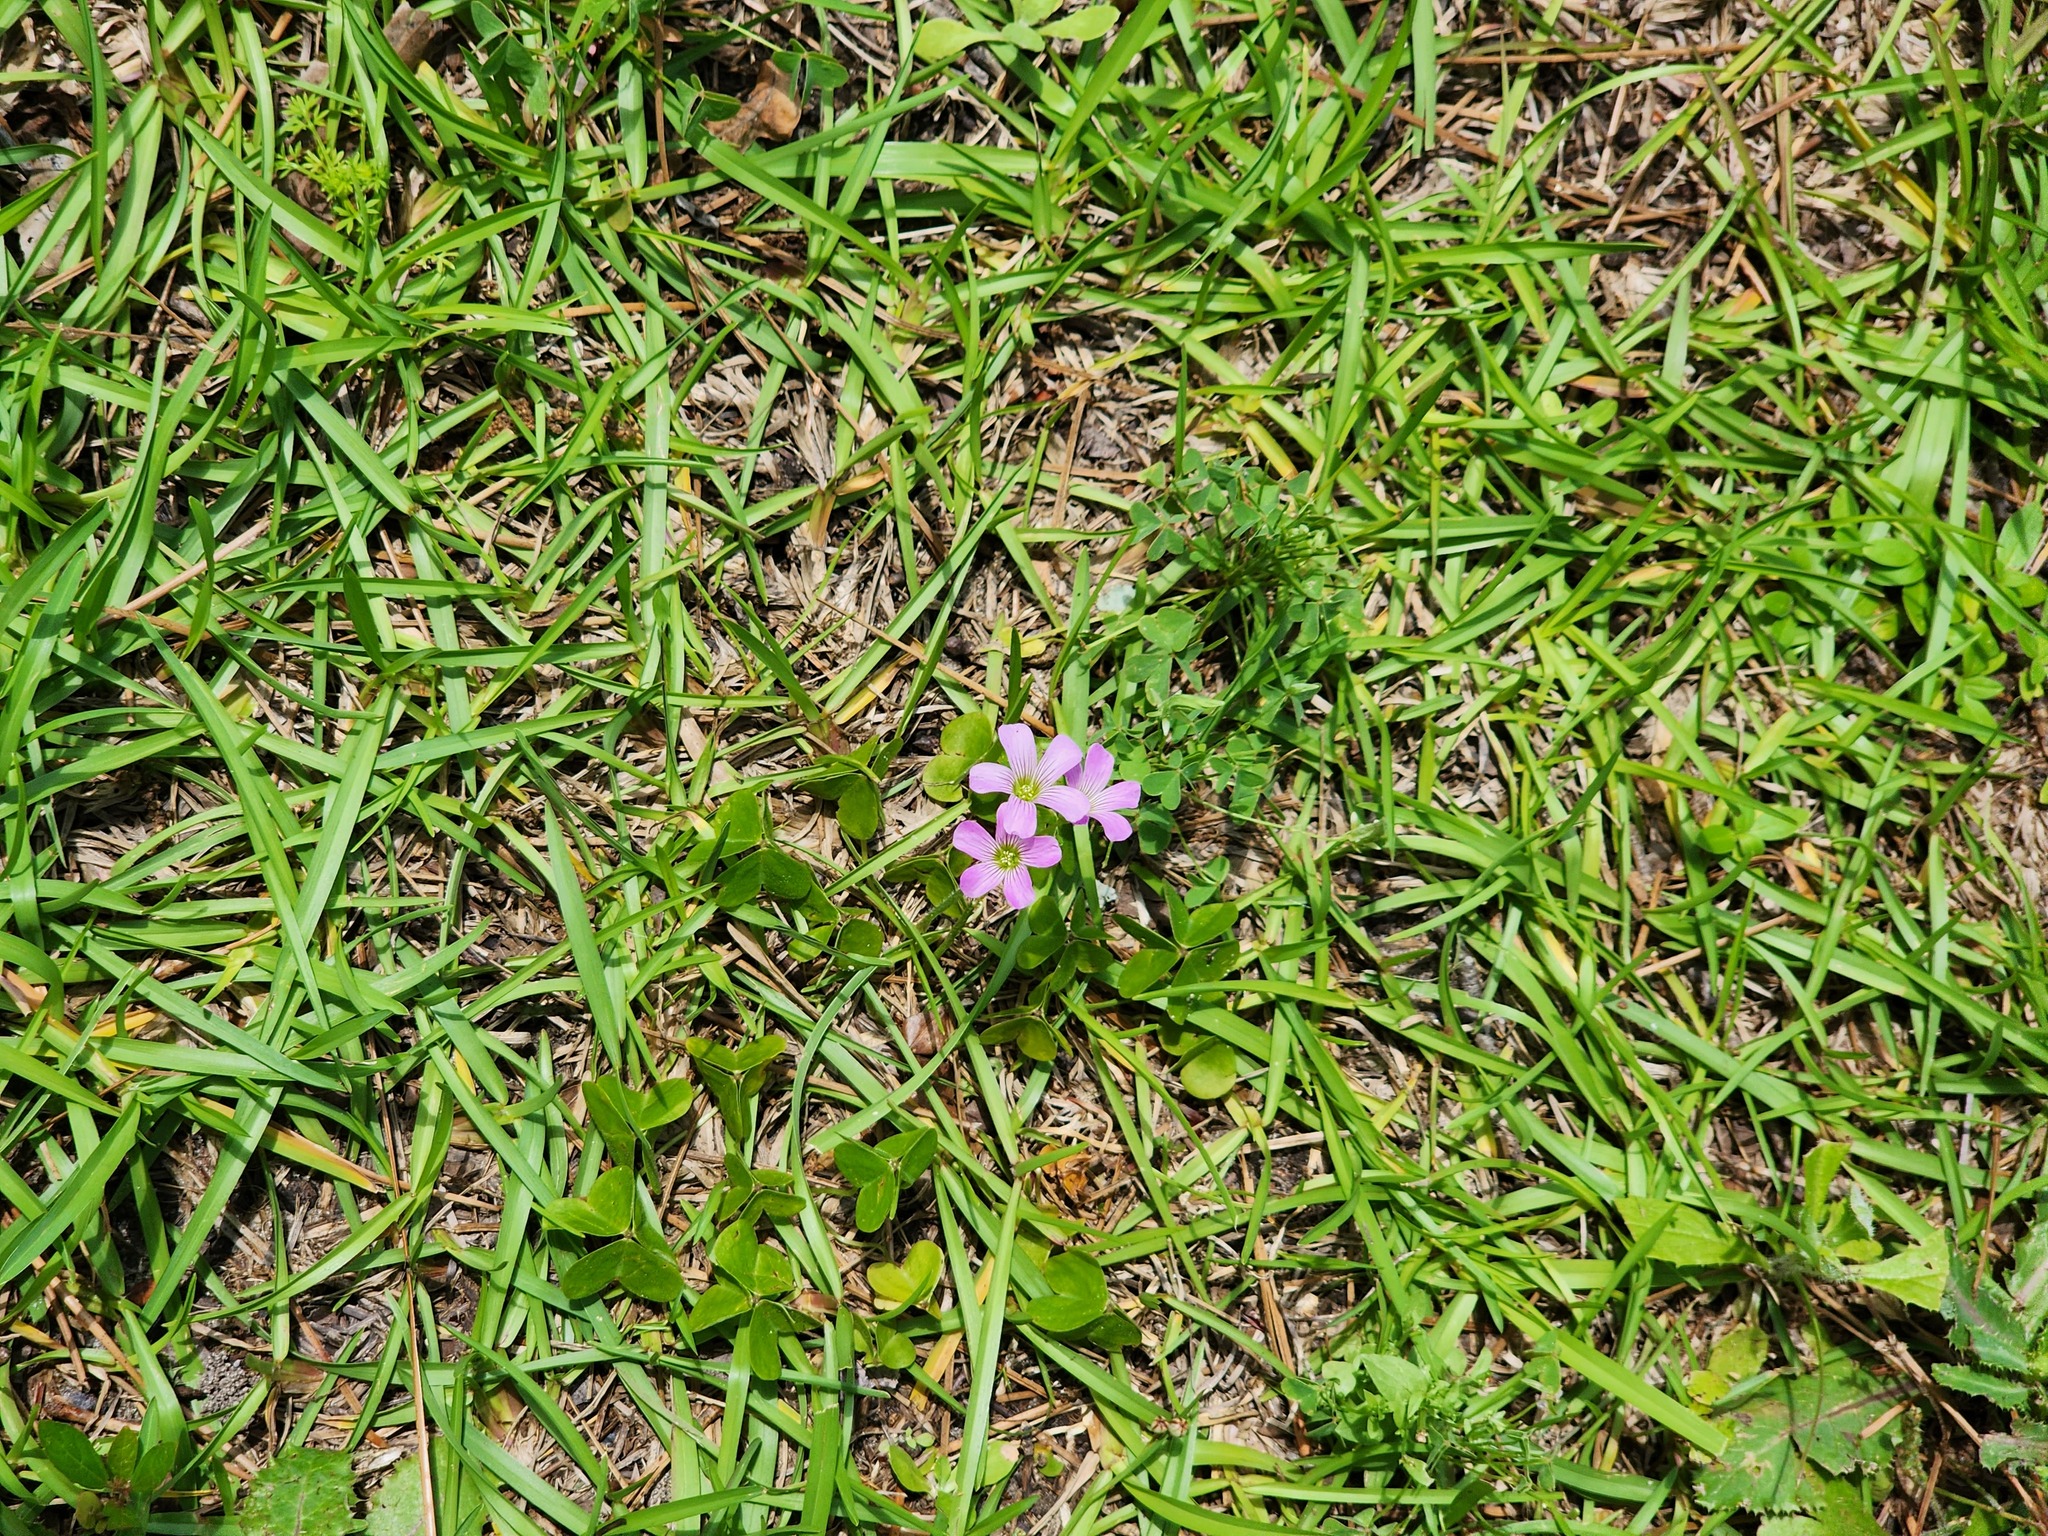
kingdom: Plantae
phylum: Tracheophyta
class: Magnoliopsida
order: Oxalidales
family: Oxalidaceae
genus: Oxalis
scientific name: Oxalis debilis
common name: Large-flowered pink-sorrel
